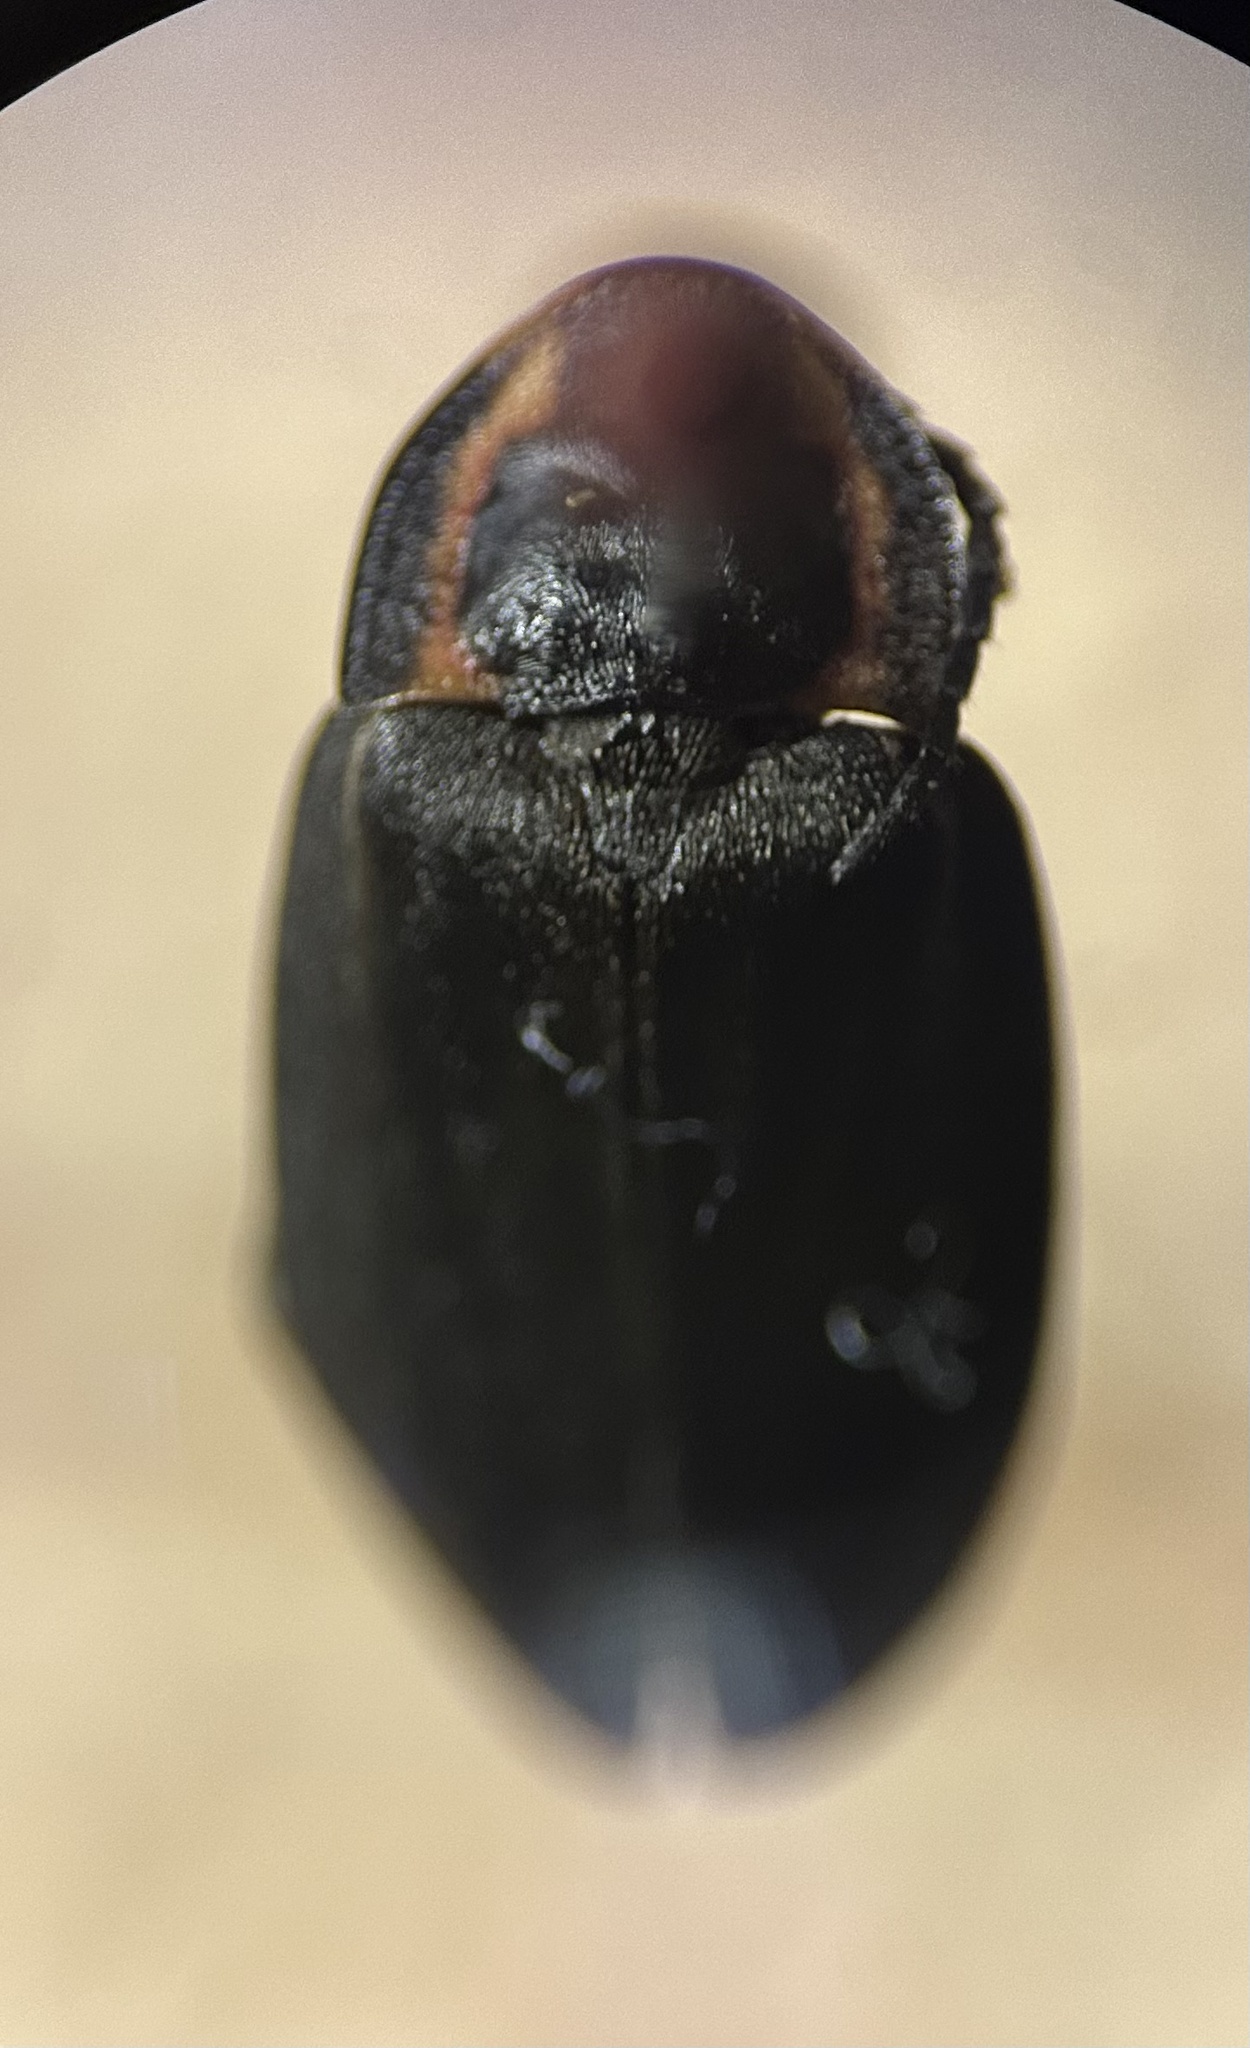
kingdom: Animalia
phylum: Arthropoda
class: Insecta
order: Coleoptera
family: Lampyridae
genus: Photinus
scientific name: Photinus corrusca
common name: Winter firefly
